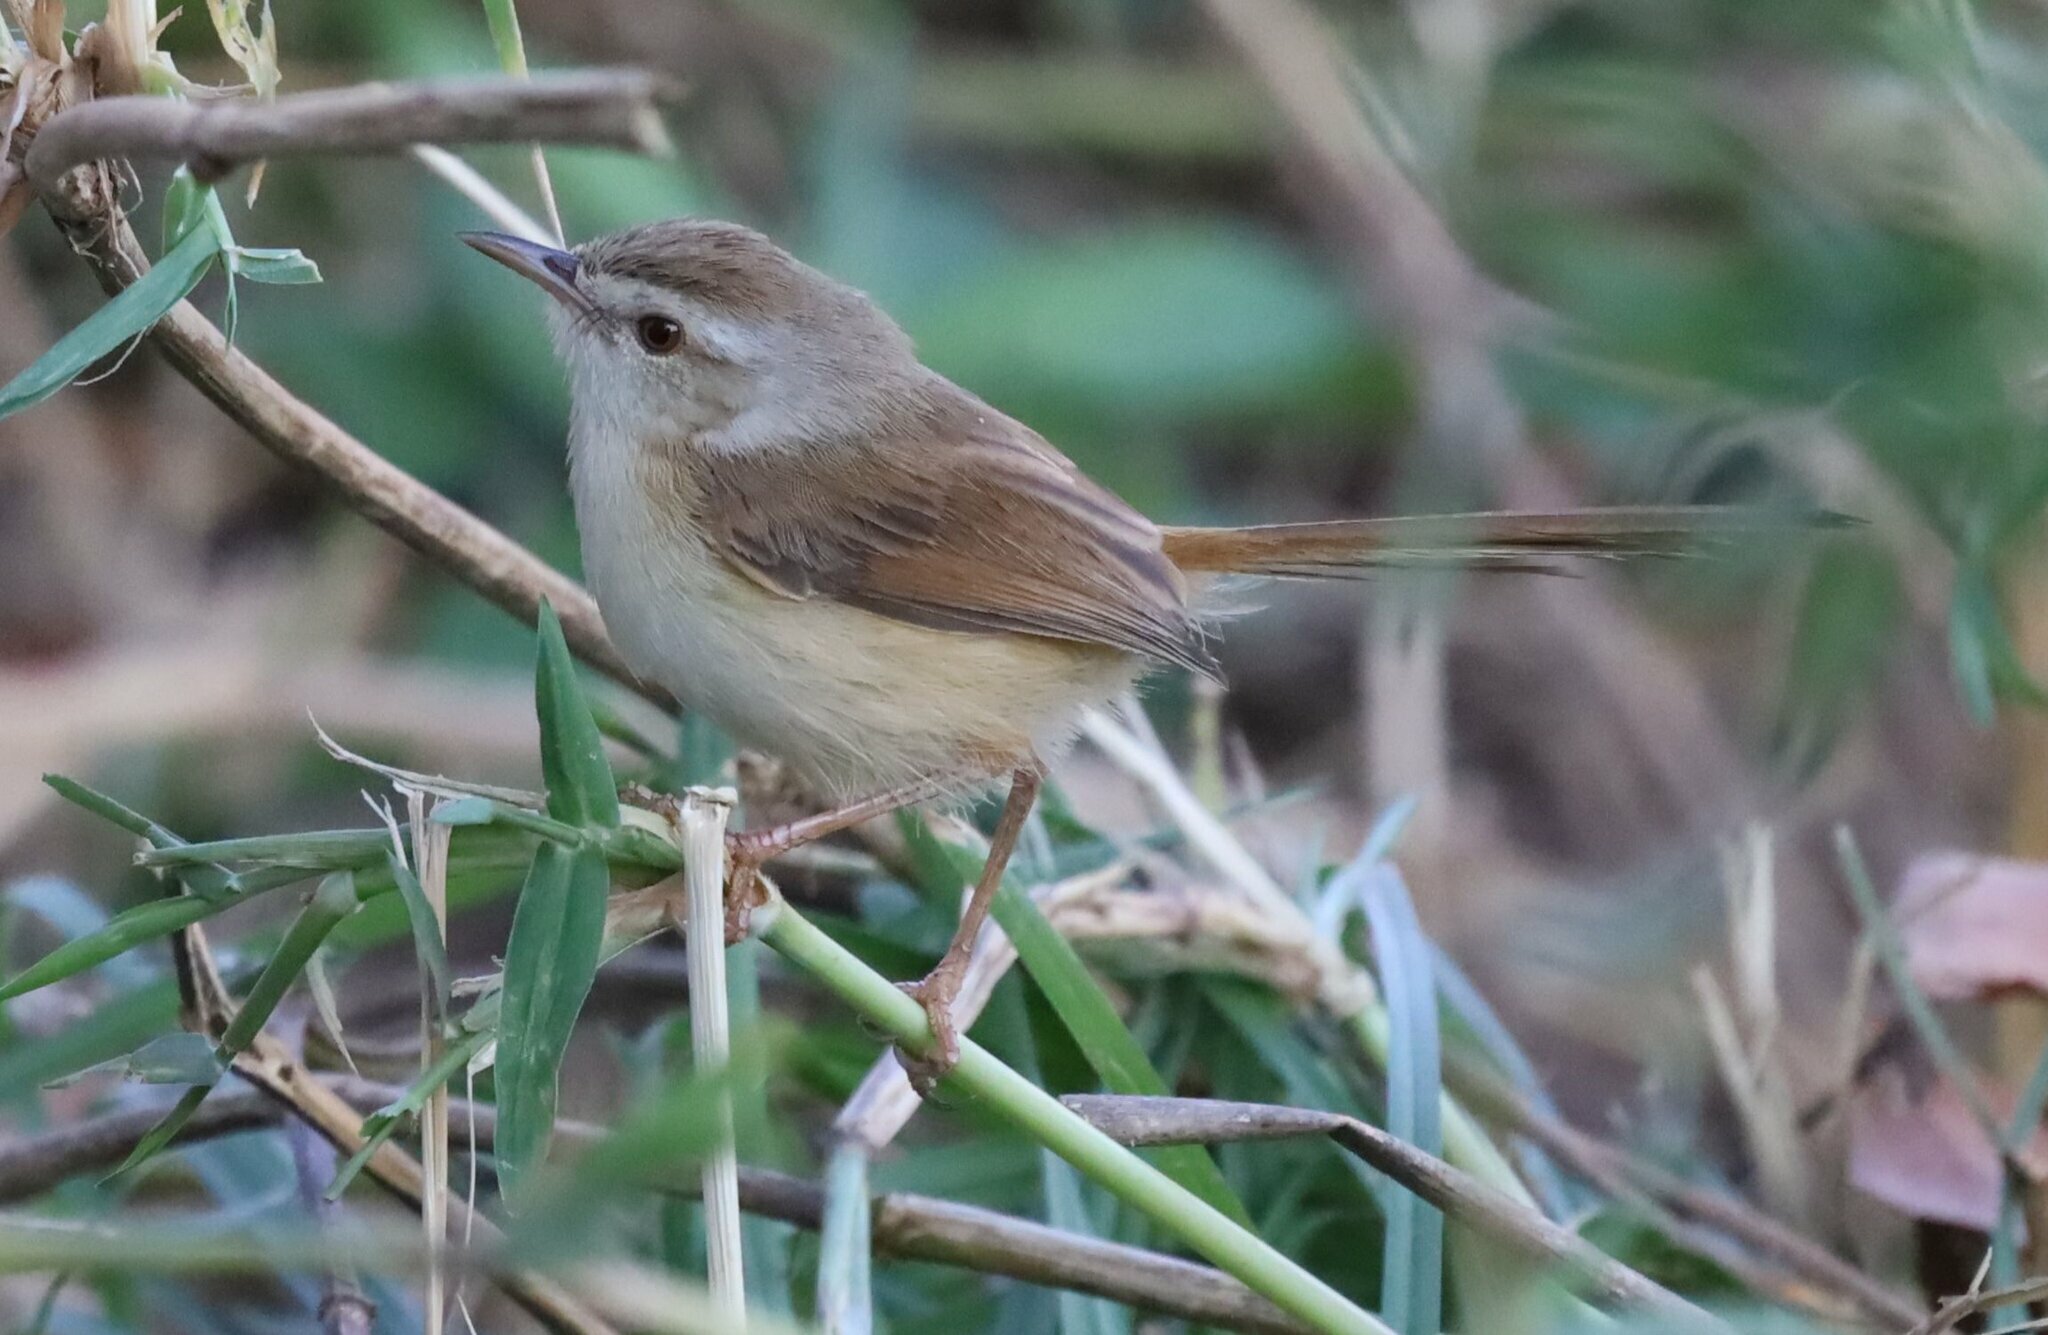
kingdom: Animalia
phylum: Chordata
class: Aves
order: Passeriformes
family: Cisticolidae
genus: Prinia
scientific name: Prinia subflava
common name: Tawny-flanked prinia
